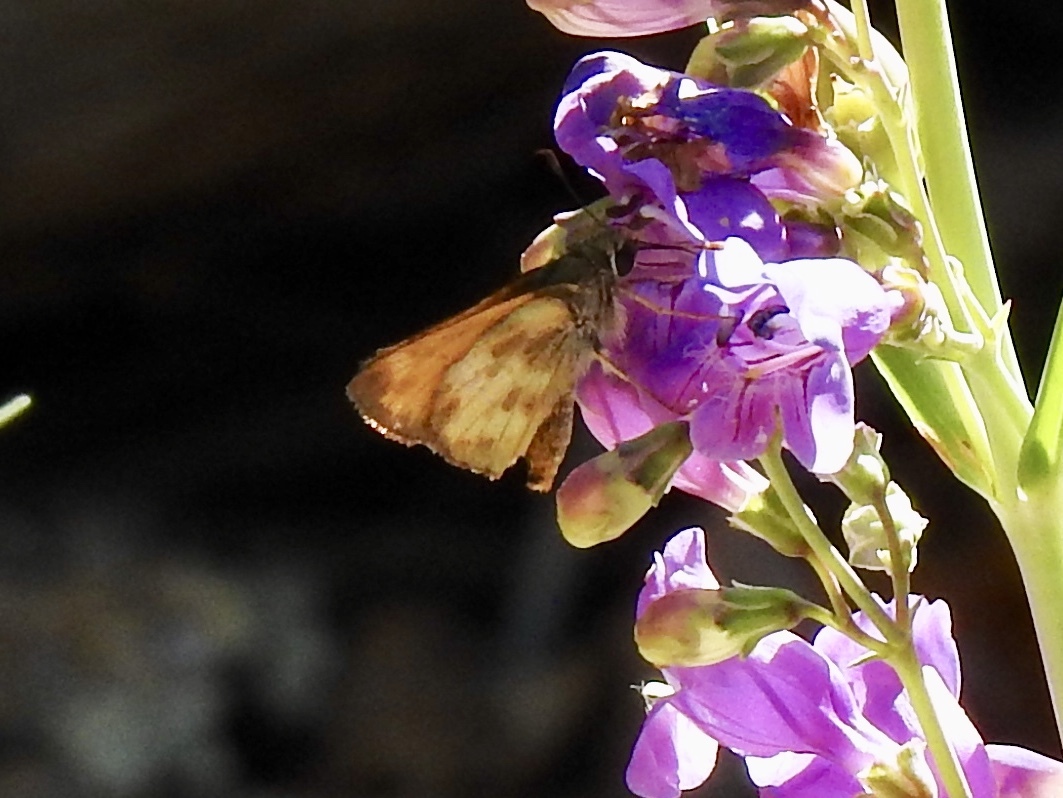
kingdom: Animalia
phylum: Arthropoda
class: Insecta
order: Lepidoptera
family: Hesperiidae
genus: Lon
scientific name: Lon taxiles
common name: Taxiles skipper
